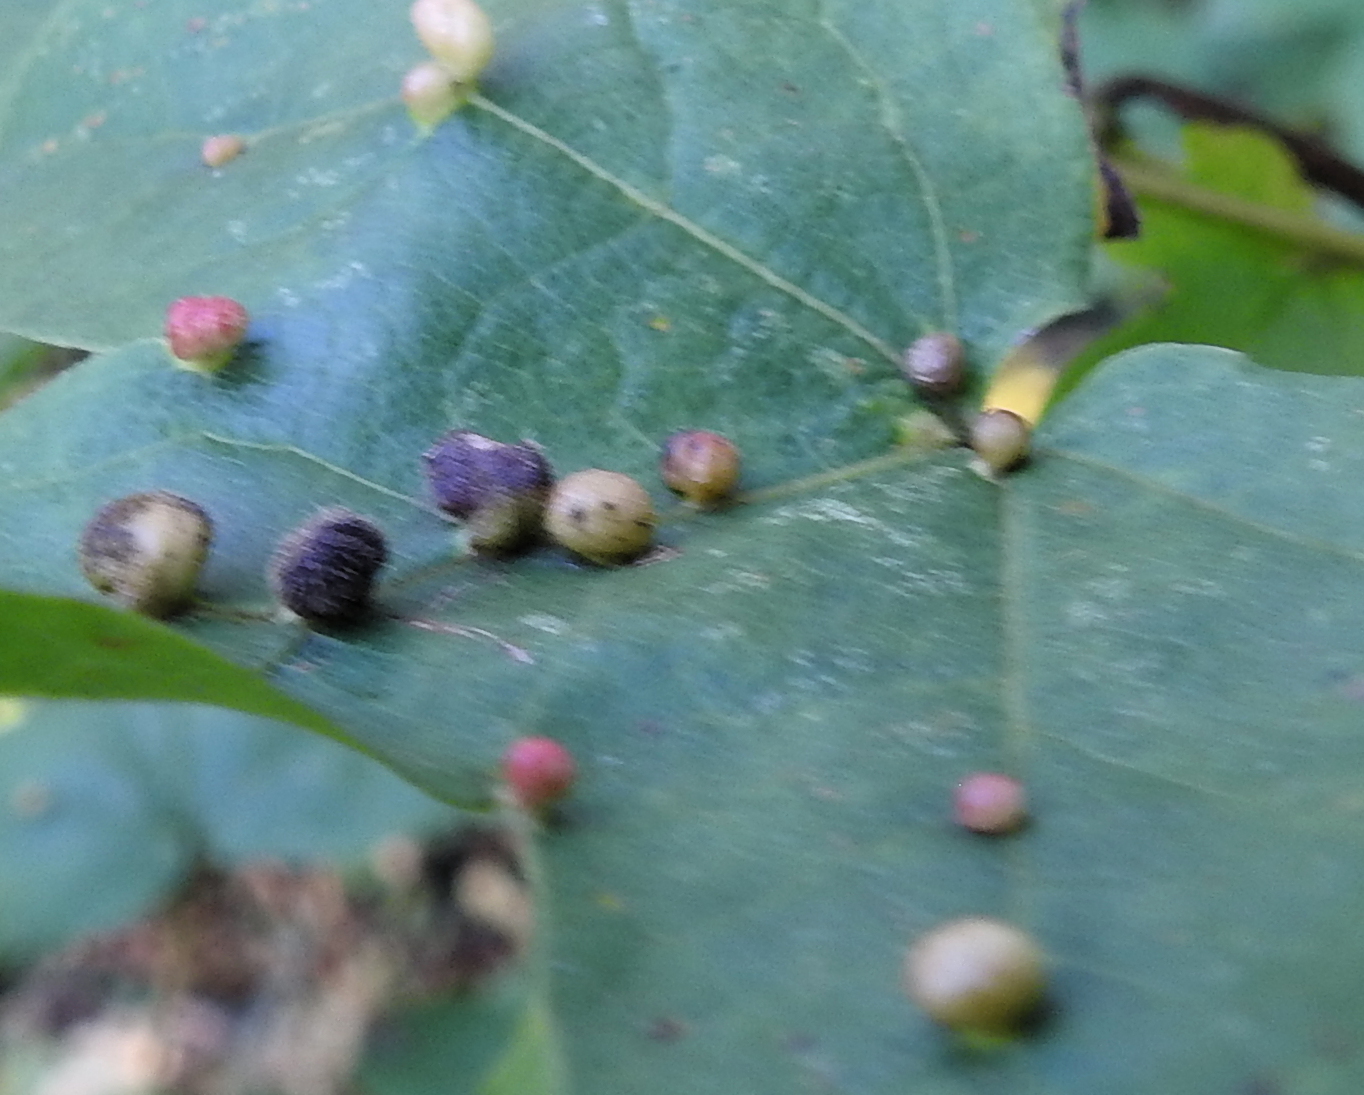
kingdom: Animalia
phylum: Arthropoda
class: Arachnida
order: Trombidiformes
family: Eriophyidae
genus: Aceria
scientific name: Aceria macrochelus
